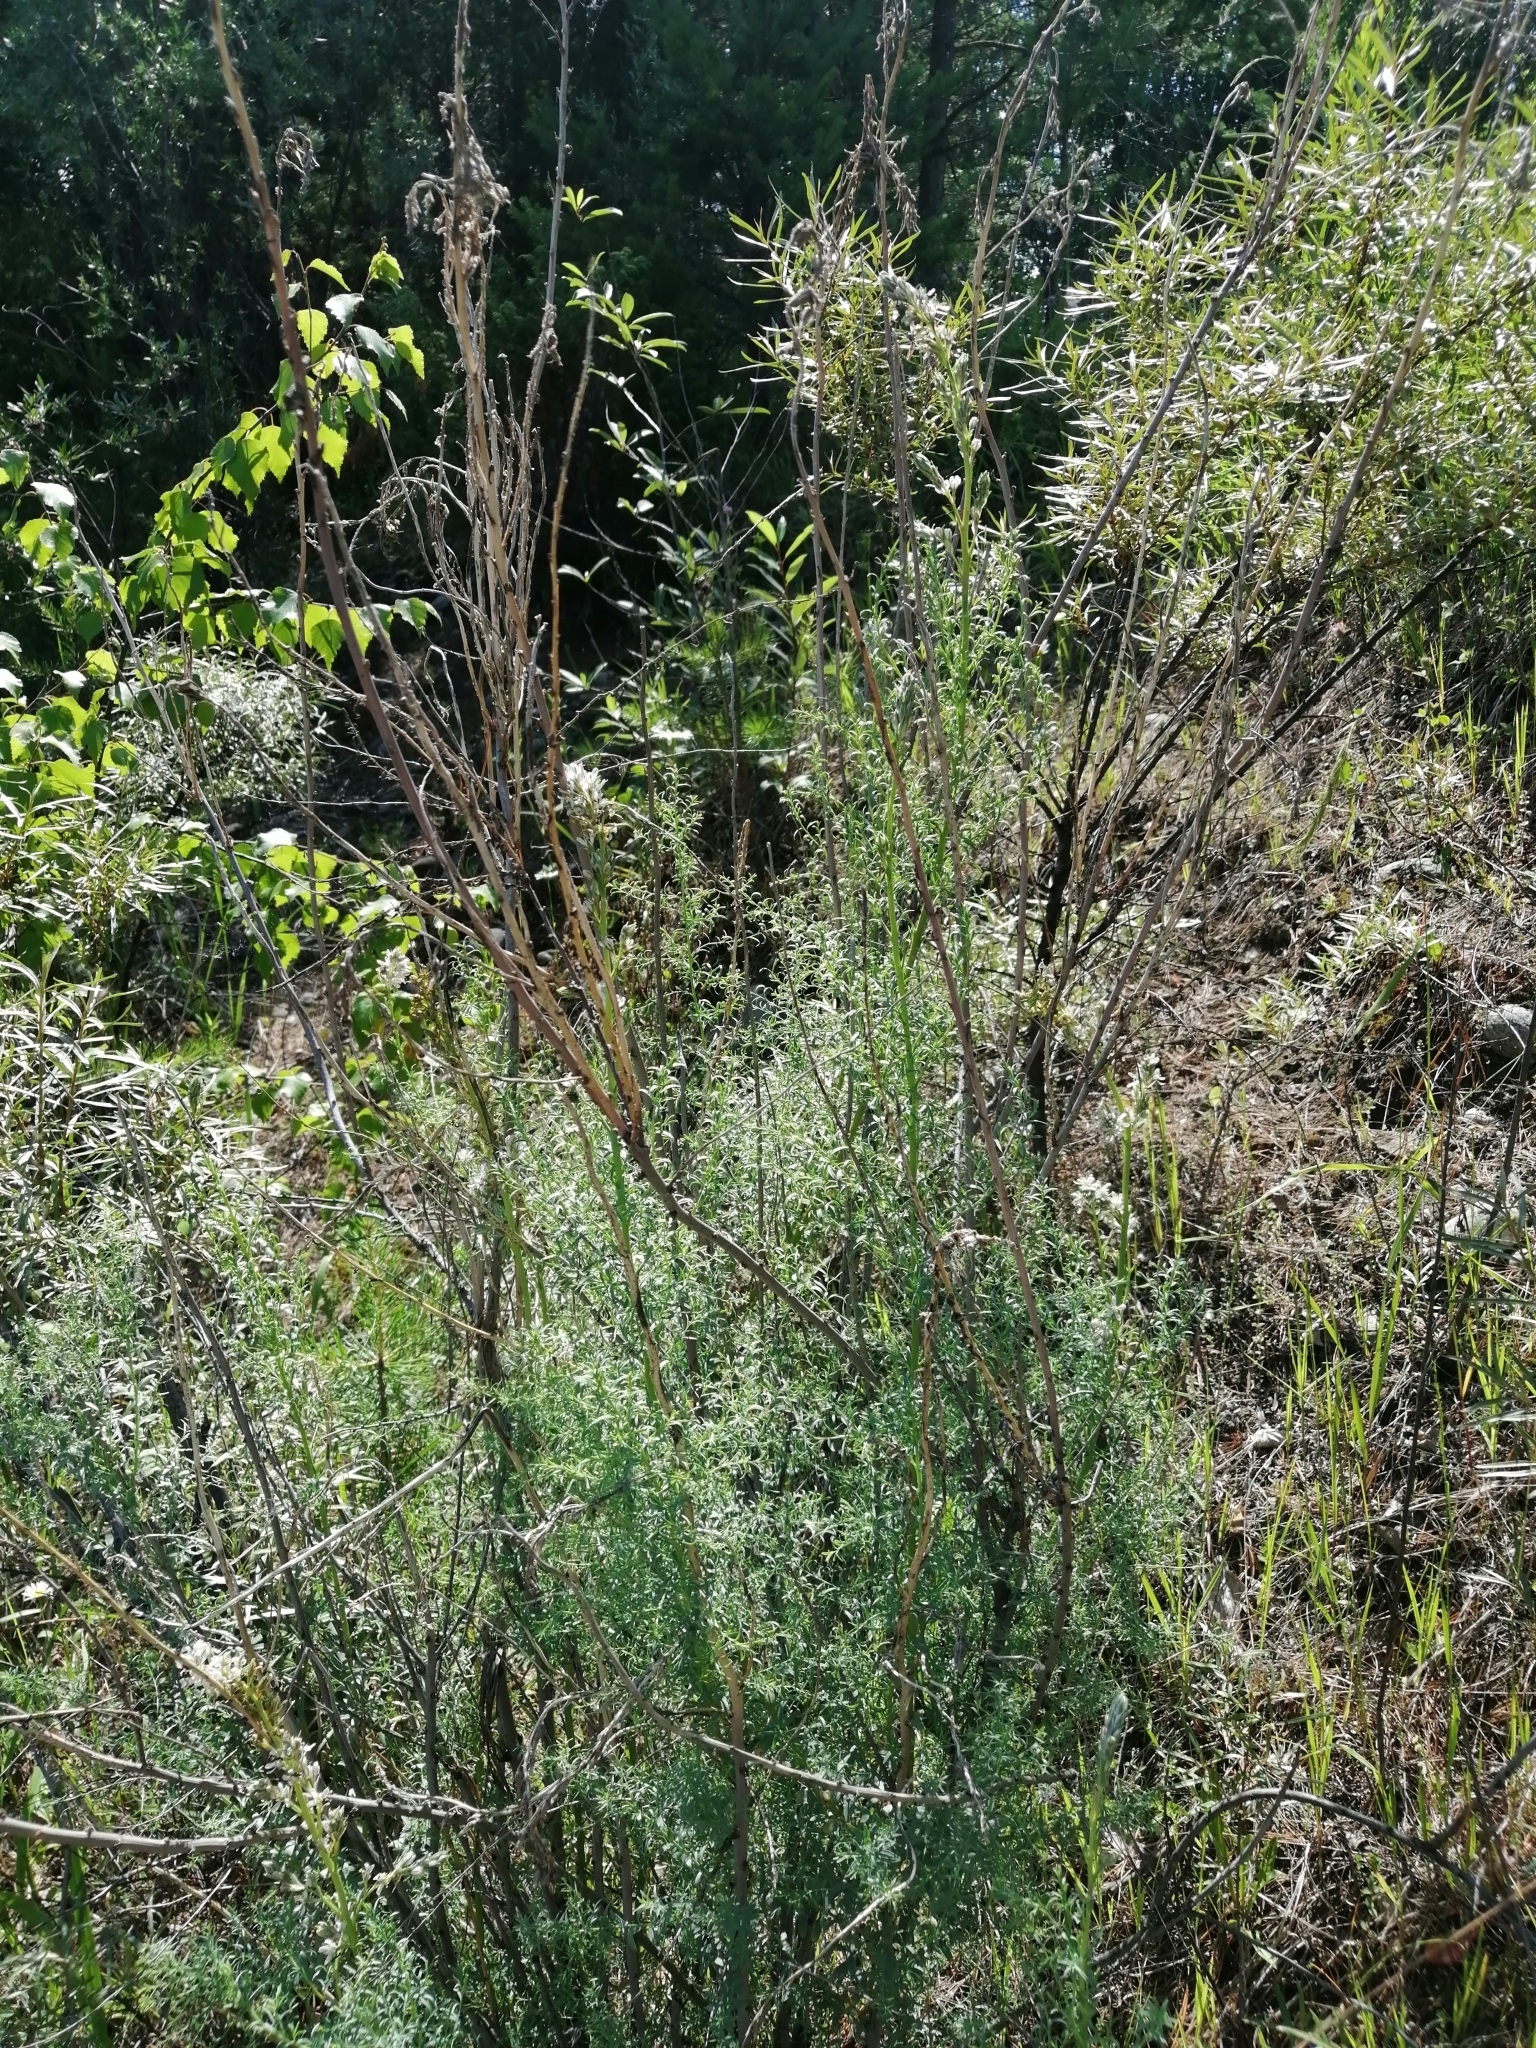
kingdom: Plantae
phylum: Tracheophyta
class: Magnoliopsida
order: Caryophyllales
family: Tamaricaceae
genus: Myricaria
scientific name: Myricaria longifolia
